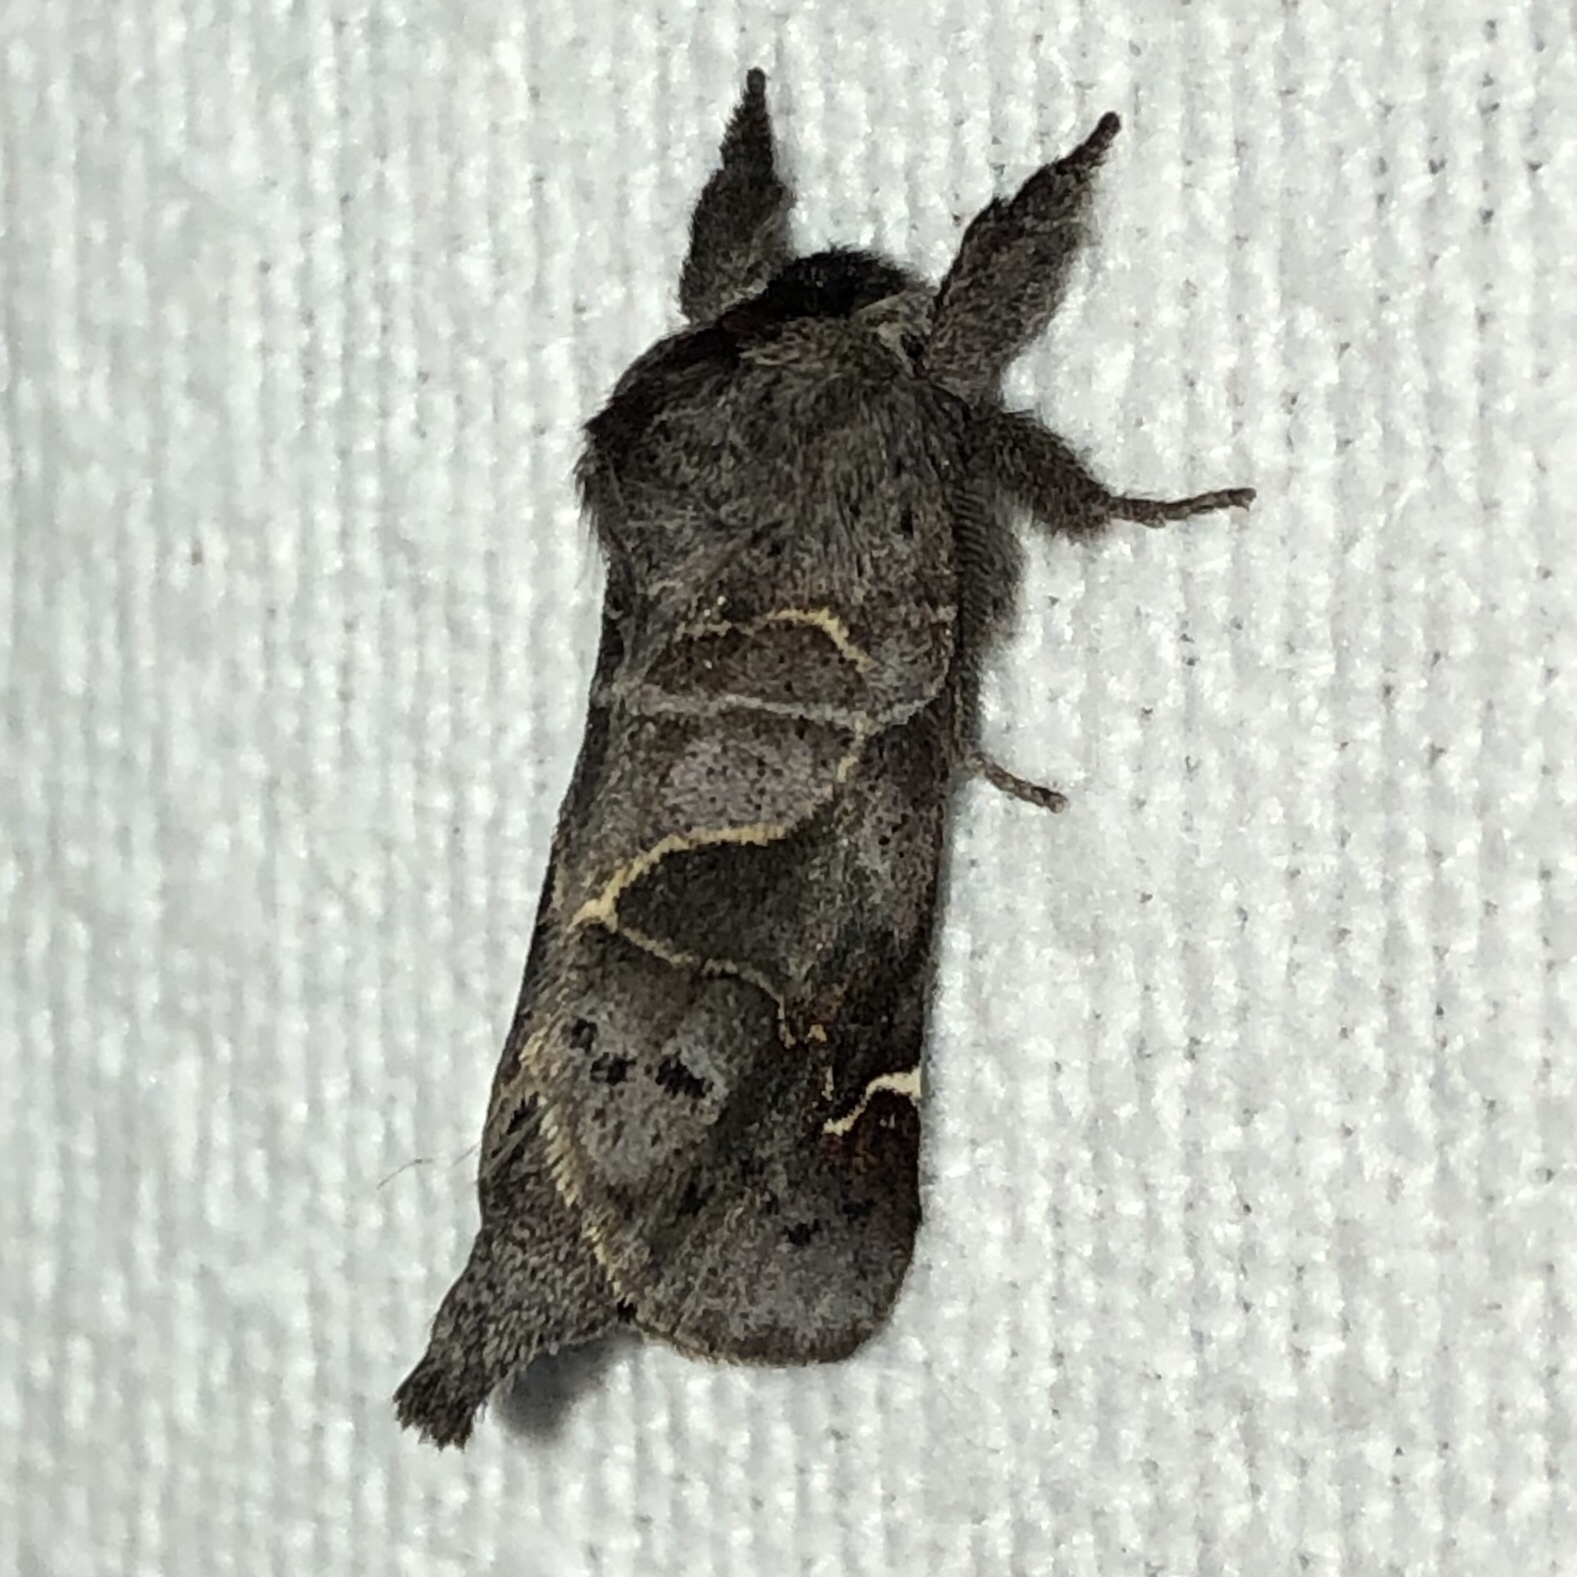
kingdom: Animalia
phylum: Arthropoda
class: Insecta
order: Lepidoptera
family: Notodontidae
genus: Clostera
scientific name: Clostera apicalis
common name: Apical prominent
